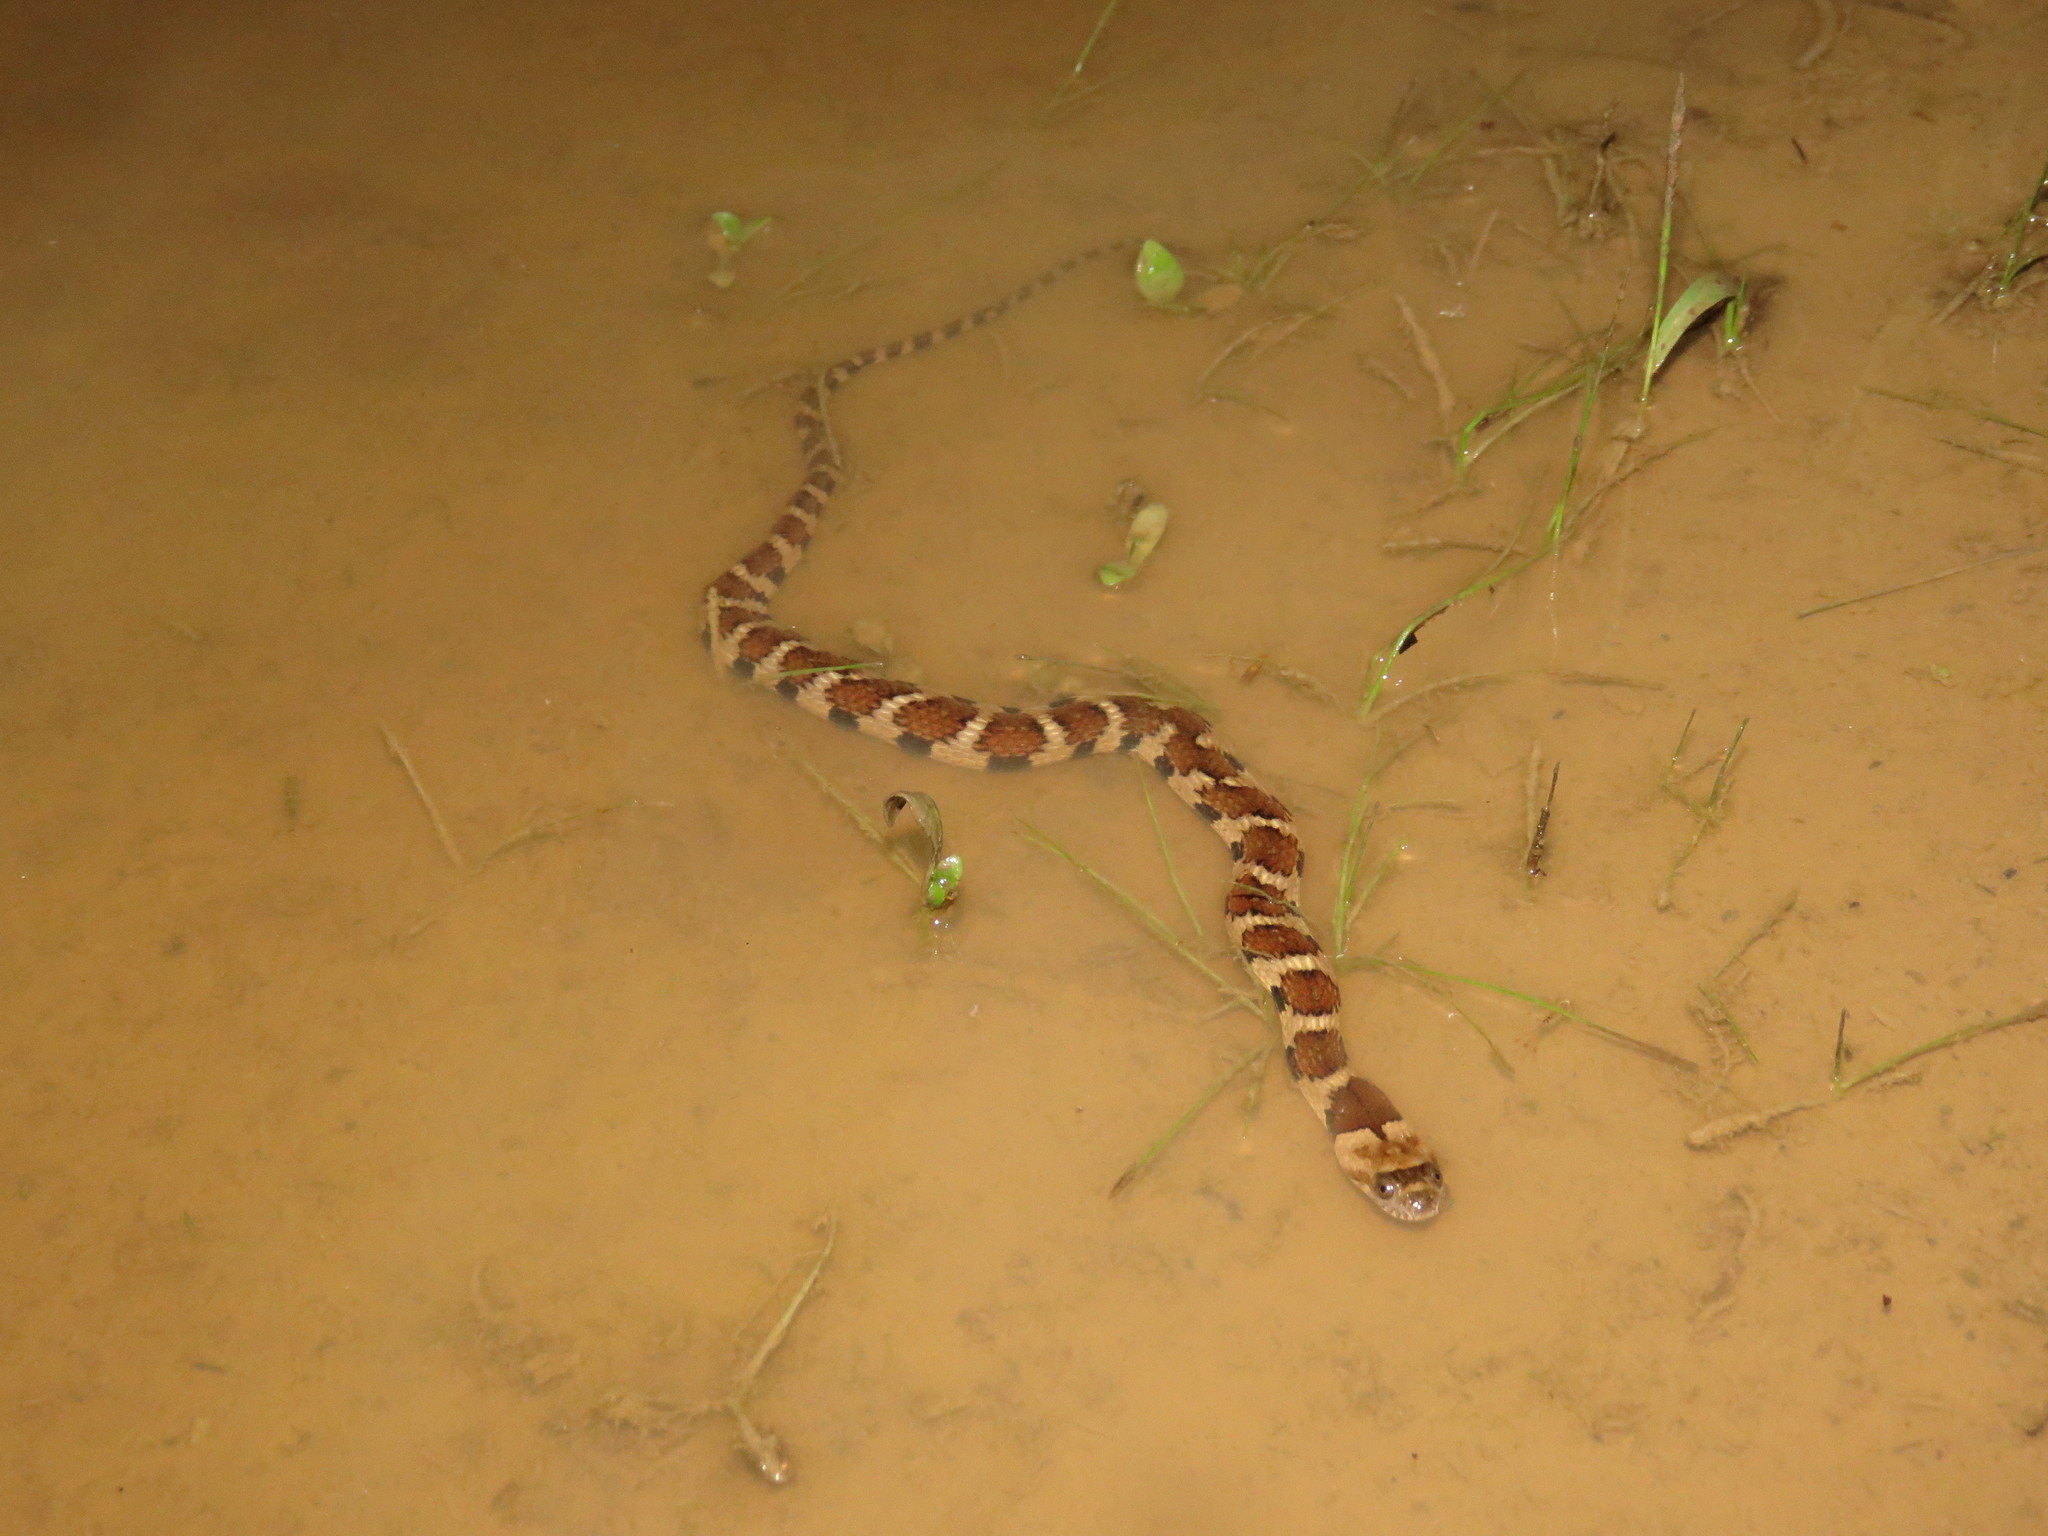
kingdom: Animalia
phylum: Chordata
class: Squamata
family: Colubridae
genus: Helicops
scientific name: Helicops angulatus
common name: Mountain keelback
